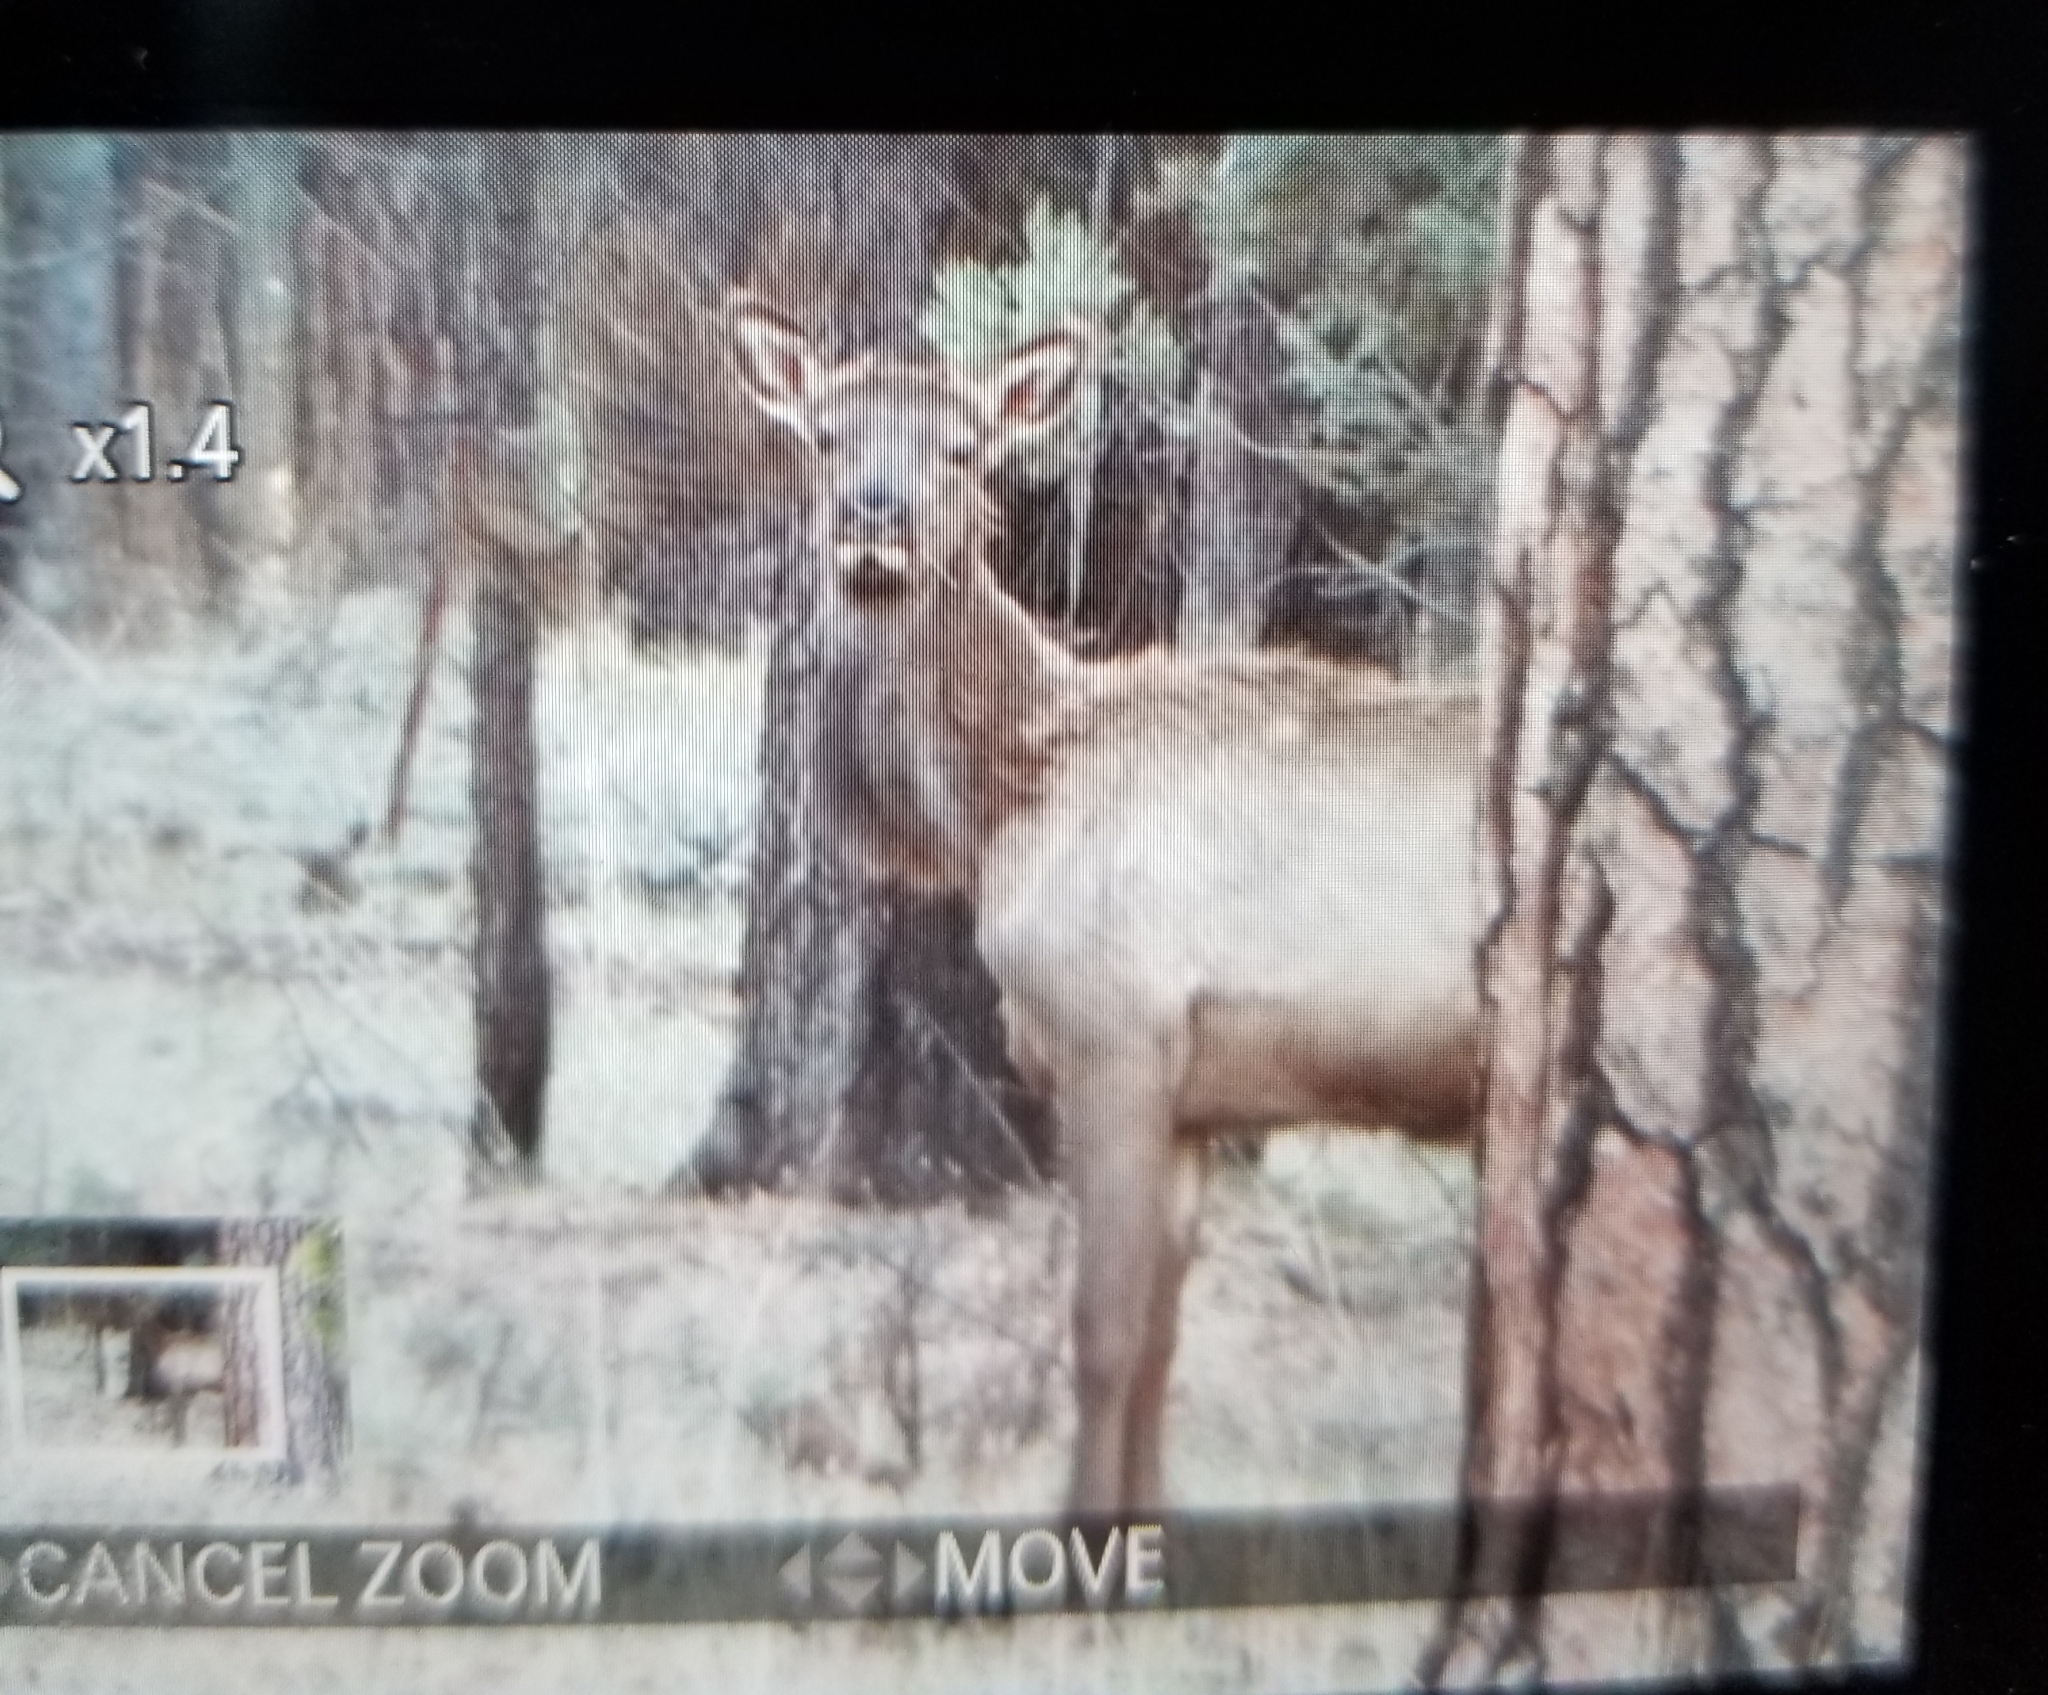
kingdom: Animalia
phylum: Chordata
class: Mammalia
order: Artiodactyla
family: Cervidae
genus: Cervus
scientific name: Cervus elaphus
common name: Red deer
